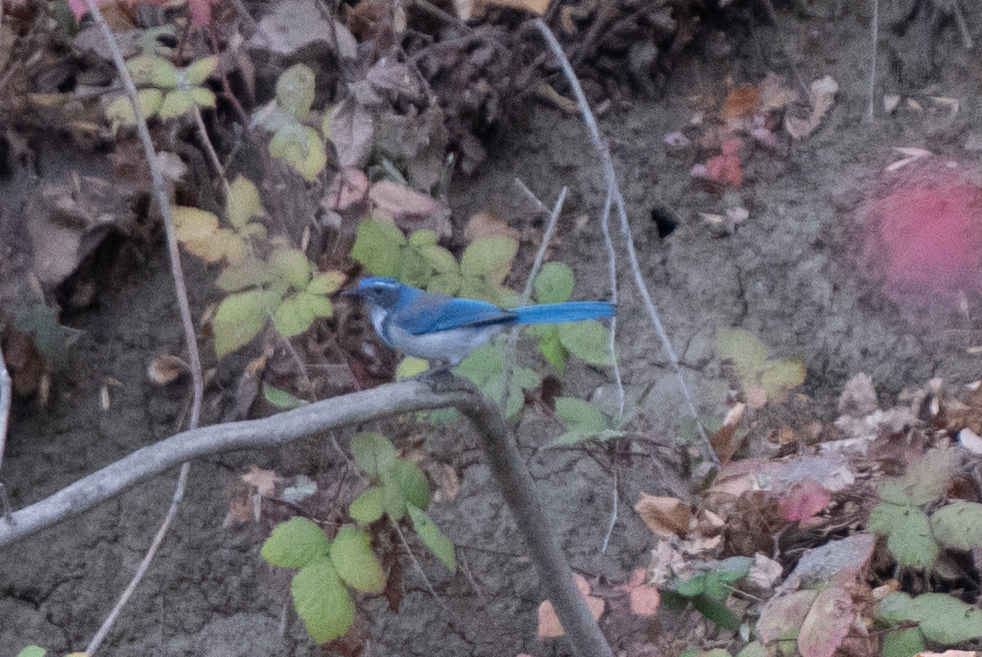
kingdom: Animalia
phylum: Chordata
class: Aves
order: Passeriformes
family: Corvidae
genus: Aphelocoma
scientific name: Aphelocoma californica
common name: California scrub-jay
